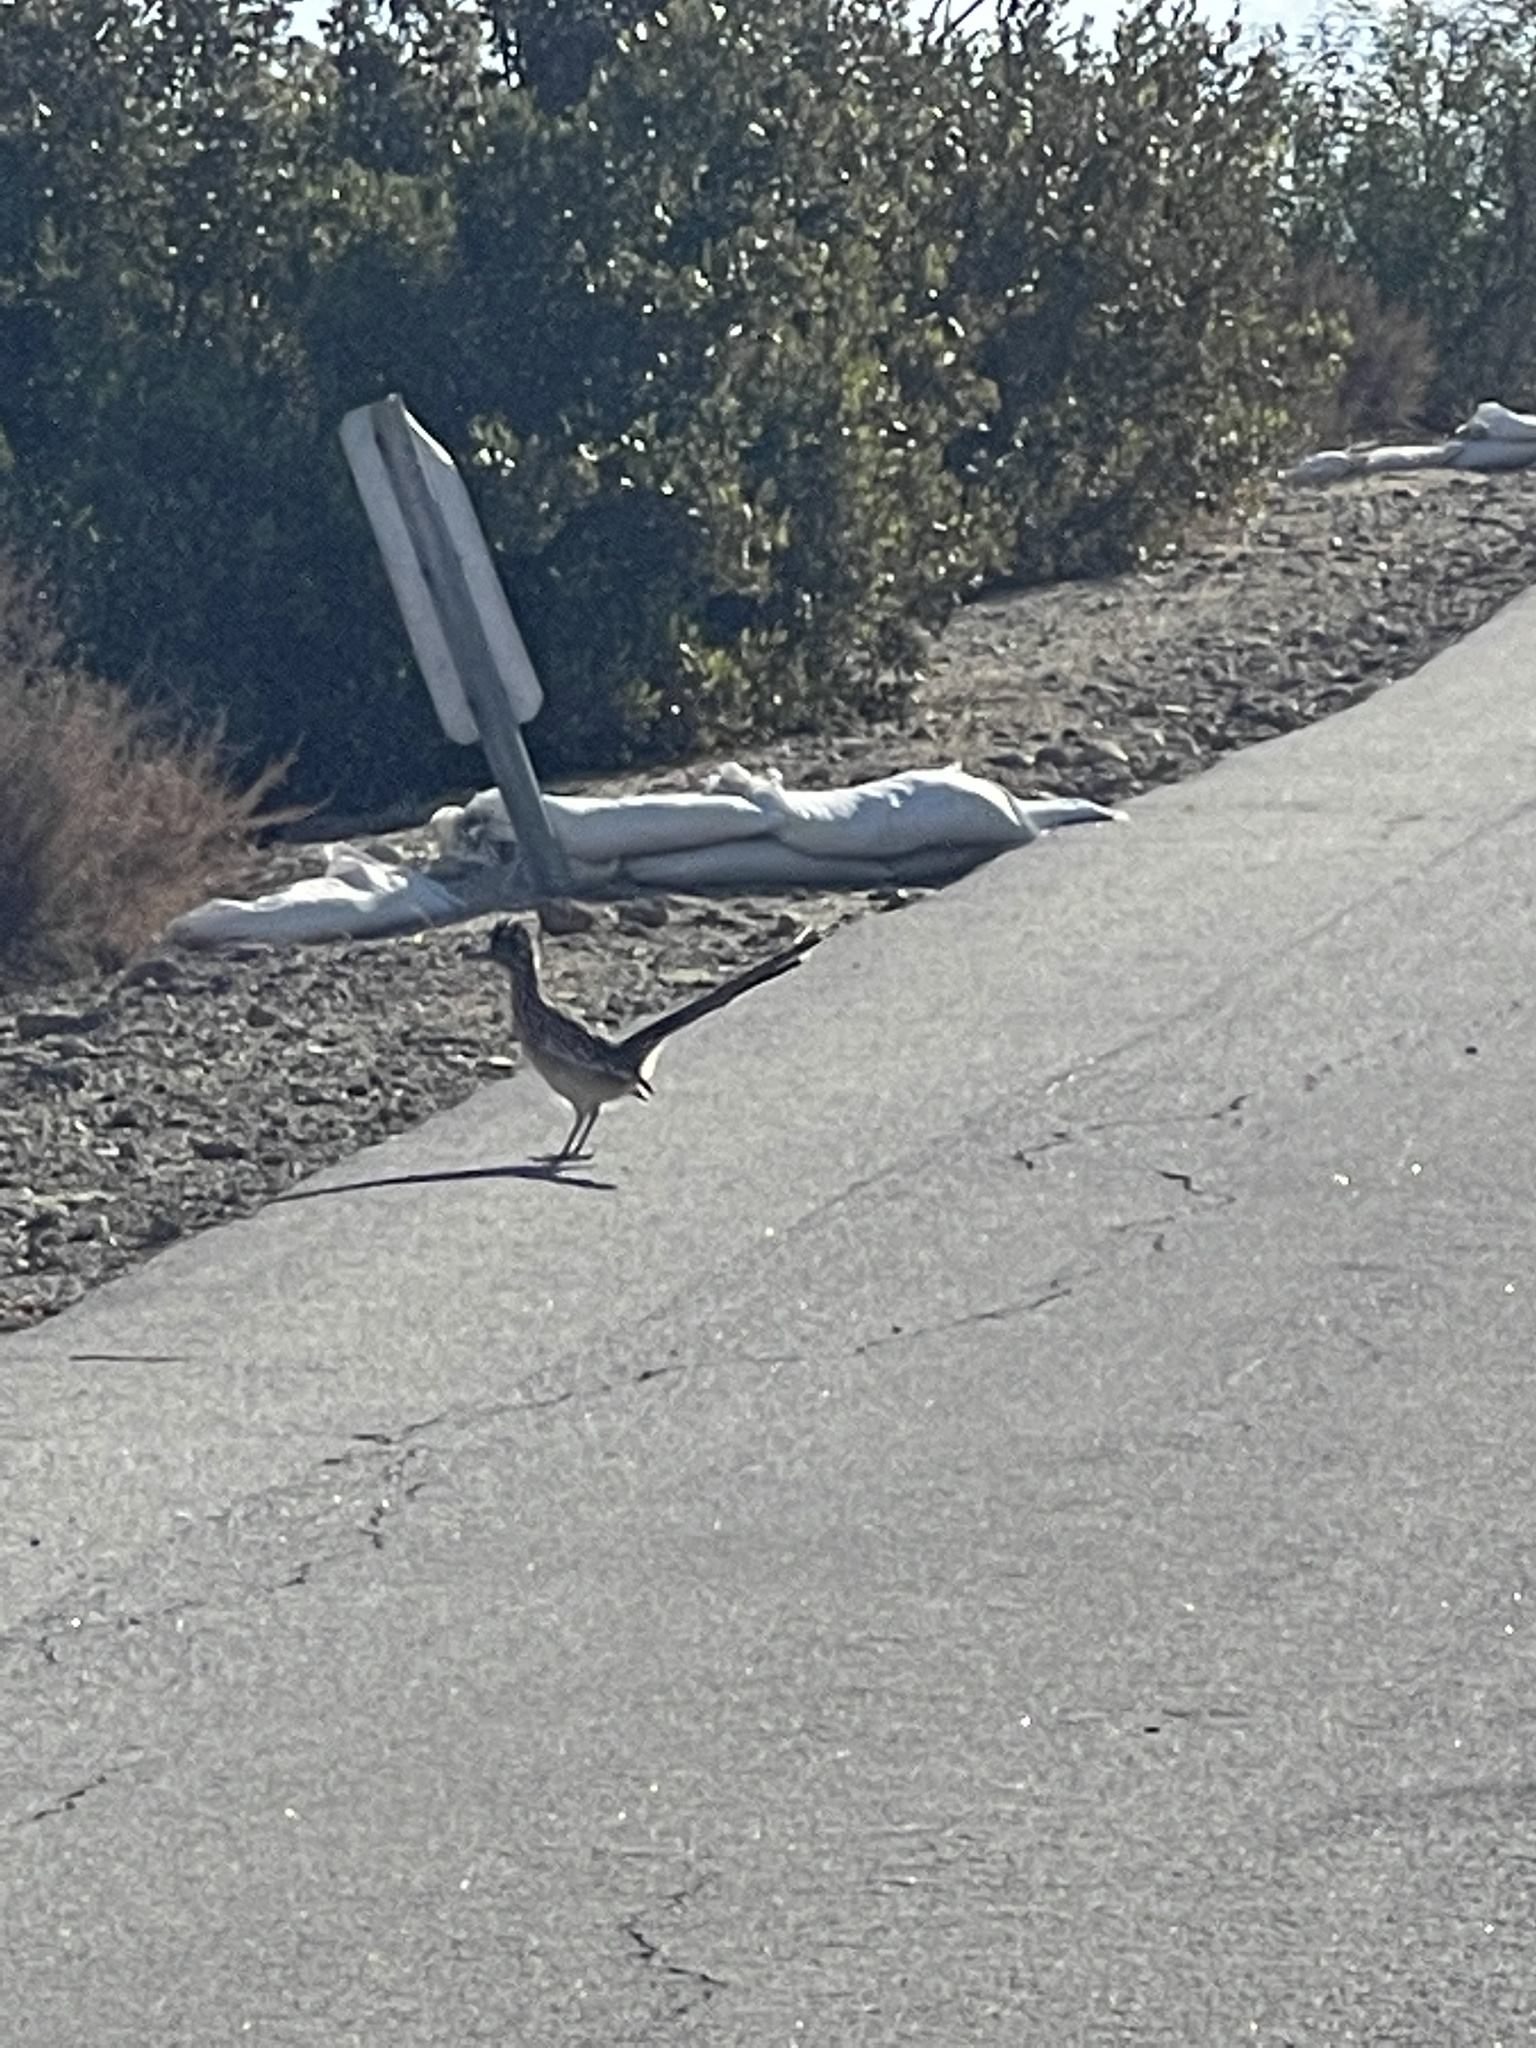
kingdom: Animalia
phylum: Chordata
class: Aves
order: Cuculiformes
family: Cuculidae
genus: Geococcyx
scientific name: Geococcyx californianus
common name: Greater roadrunner
